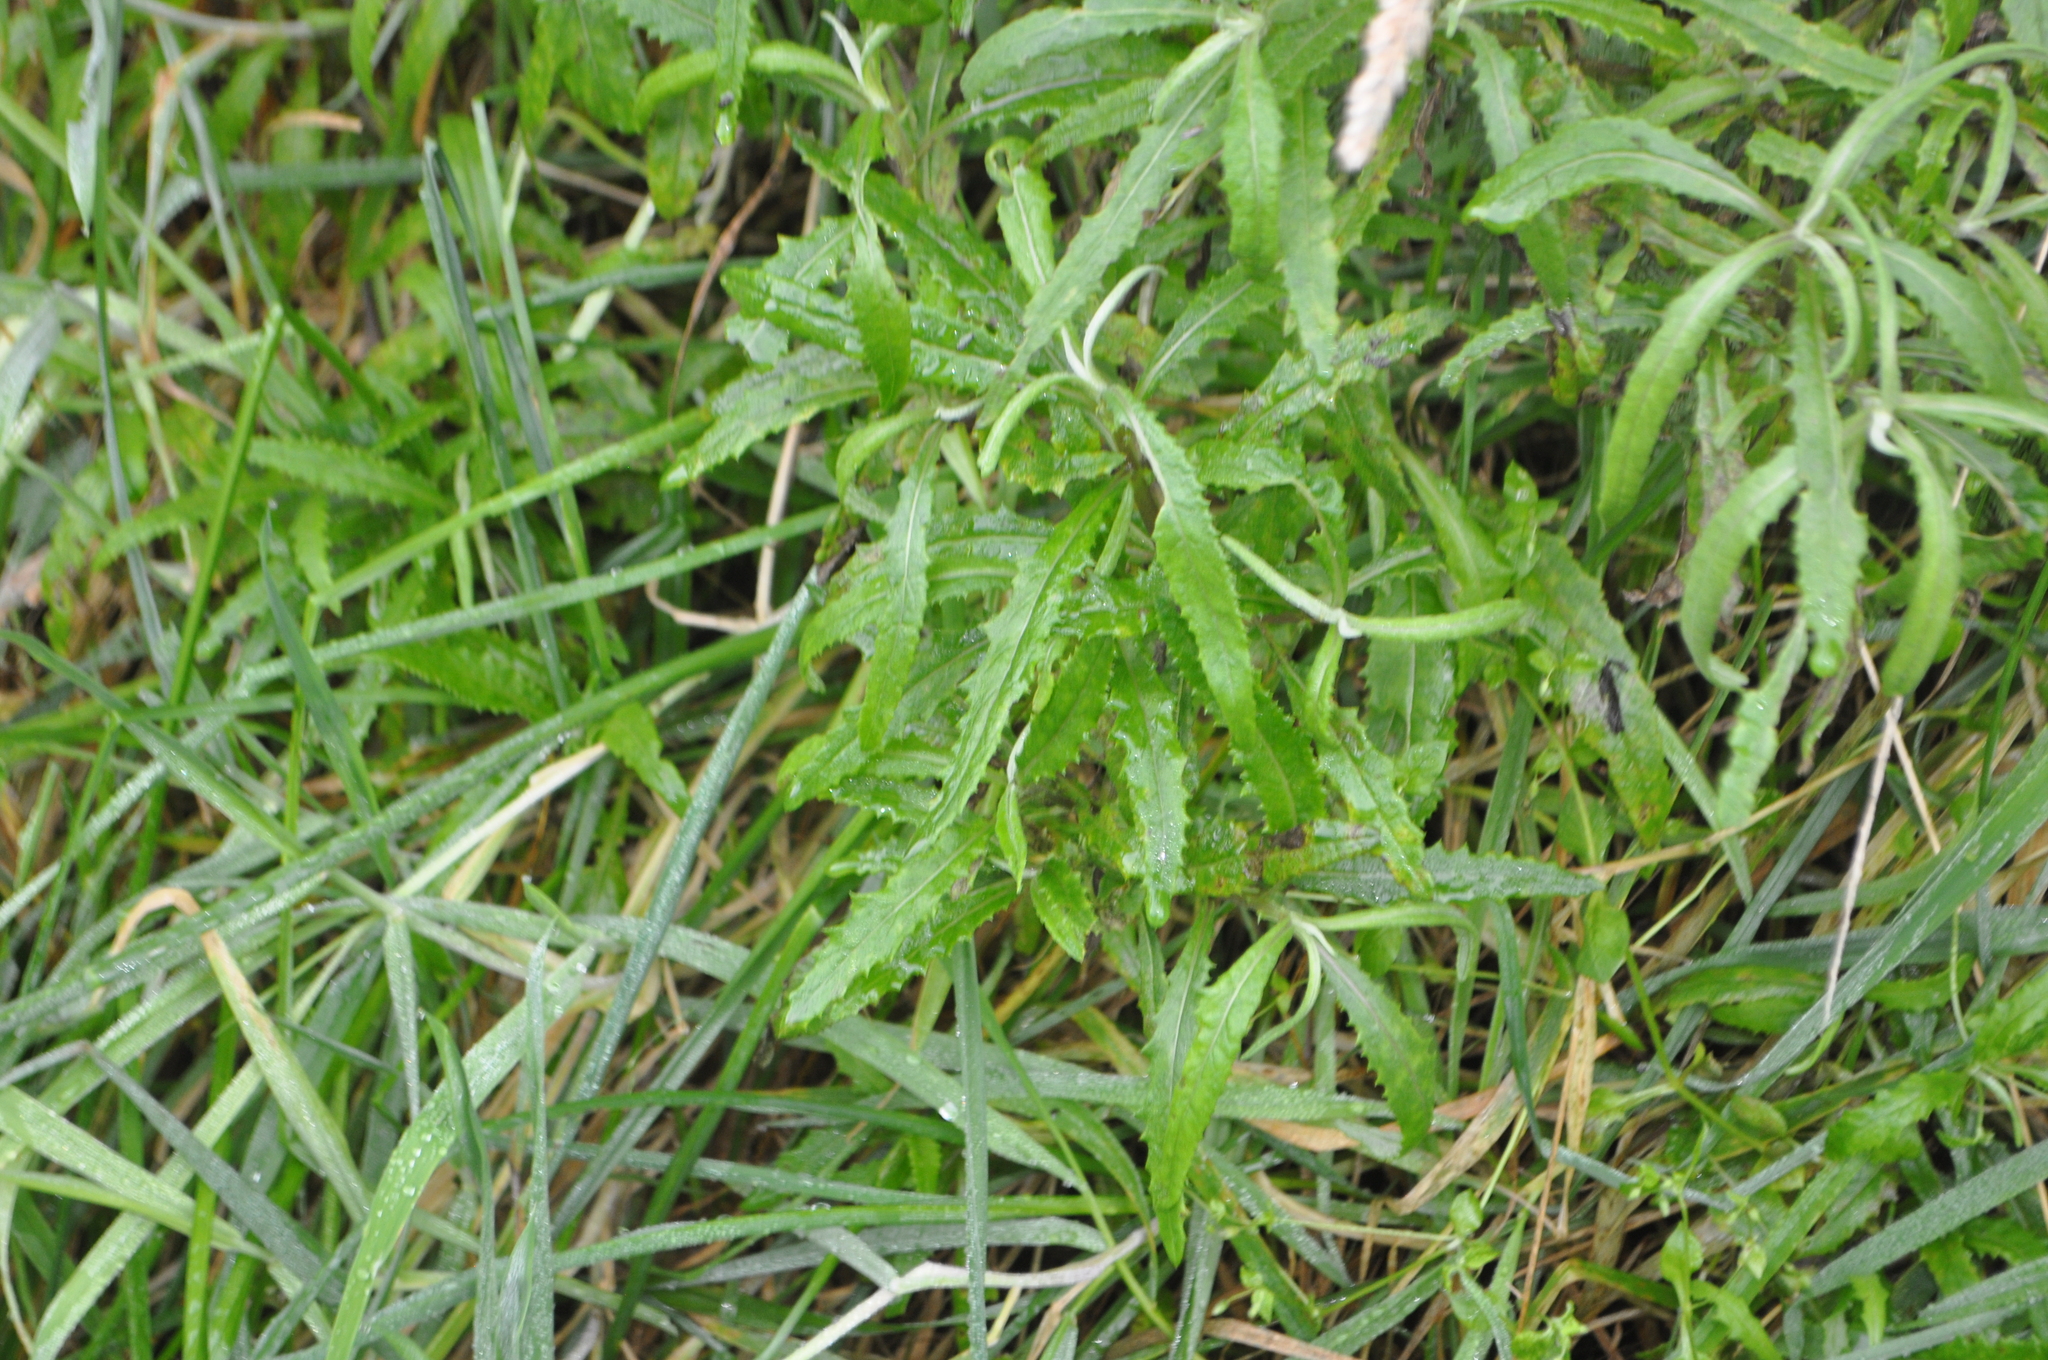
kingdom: Plantae
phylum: Tracheophyta
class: Magnoliopsida
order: Asterales
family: Asteraceae
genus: Senecio
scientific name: Senecio minimus
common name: Toothed fireweed
